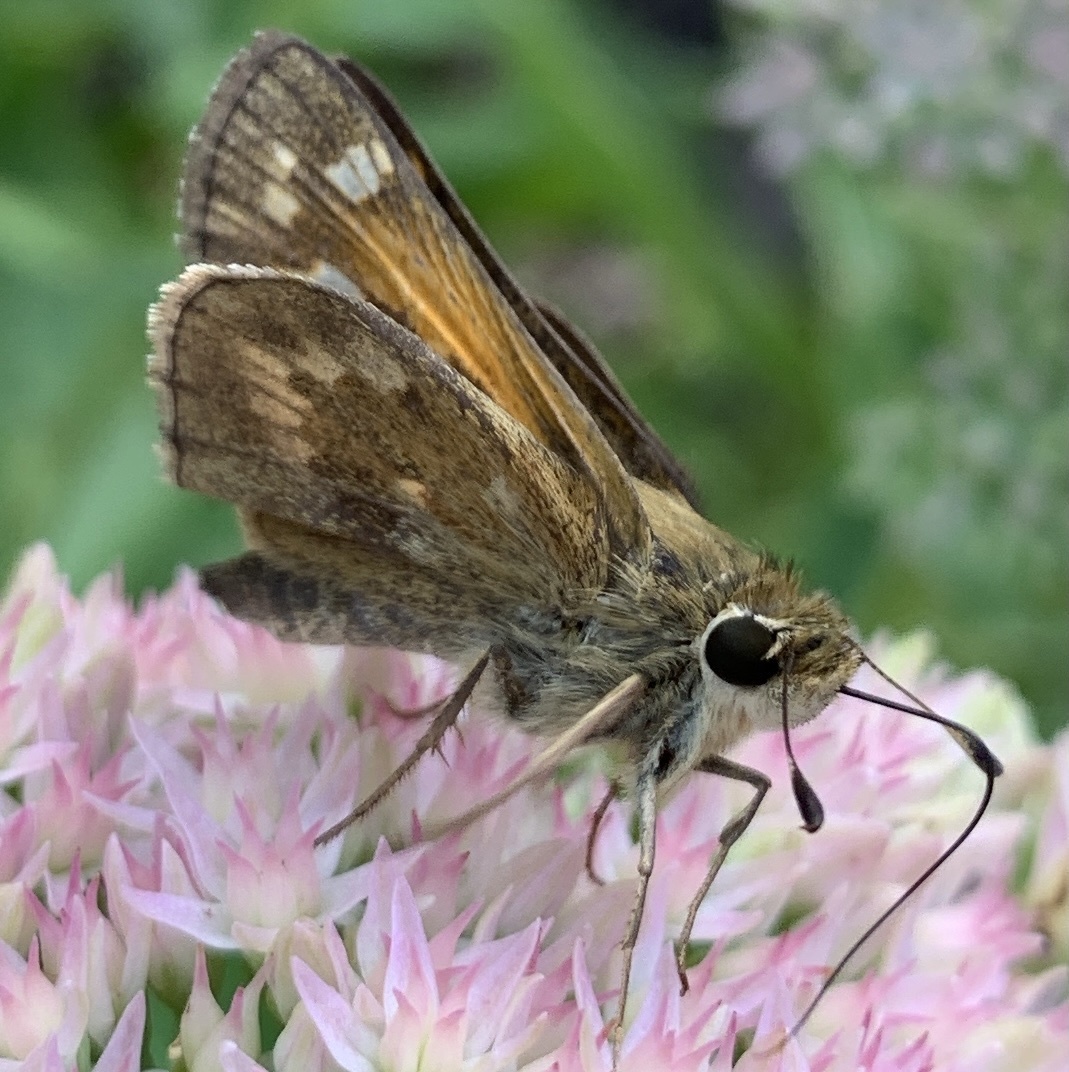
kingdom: Animalia
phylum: Arthropoda
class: Insecta
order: Lepidoptera
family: Hesperiidae
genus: Atalopedes
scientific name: Atalopedes
